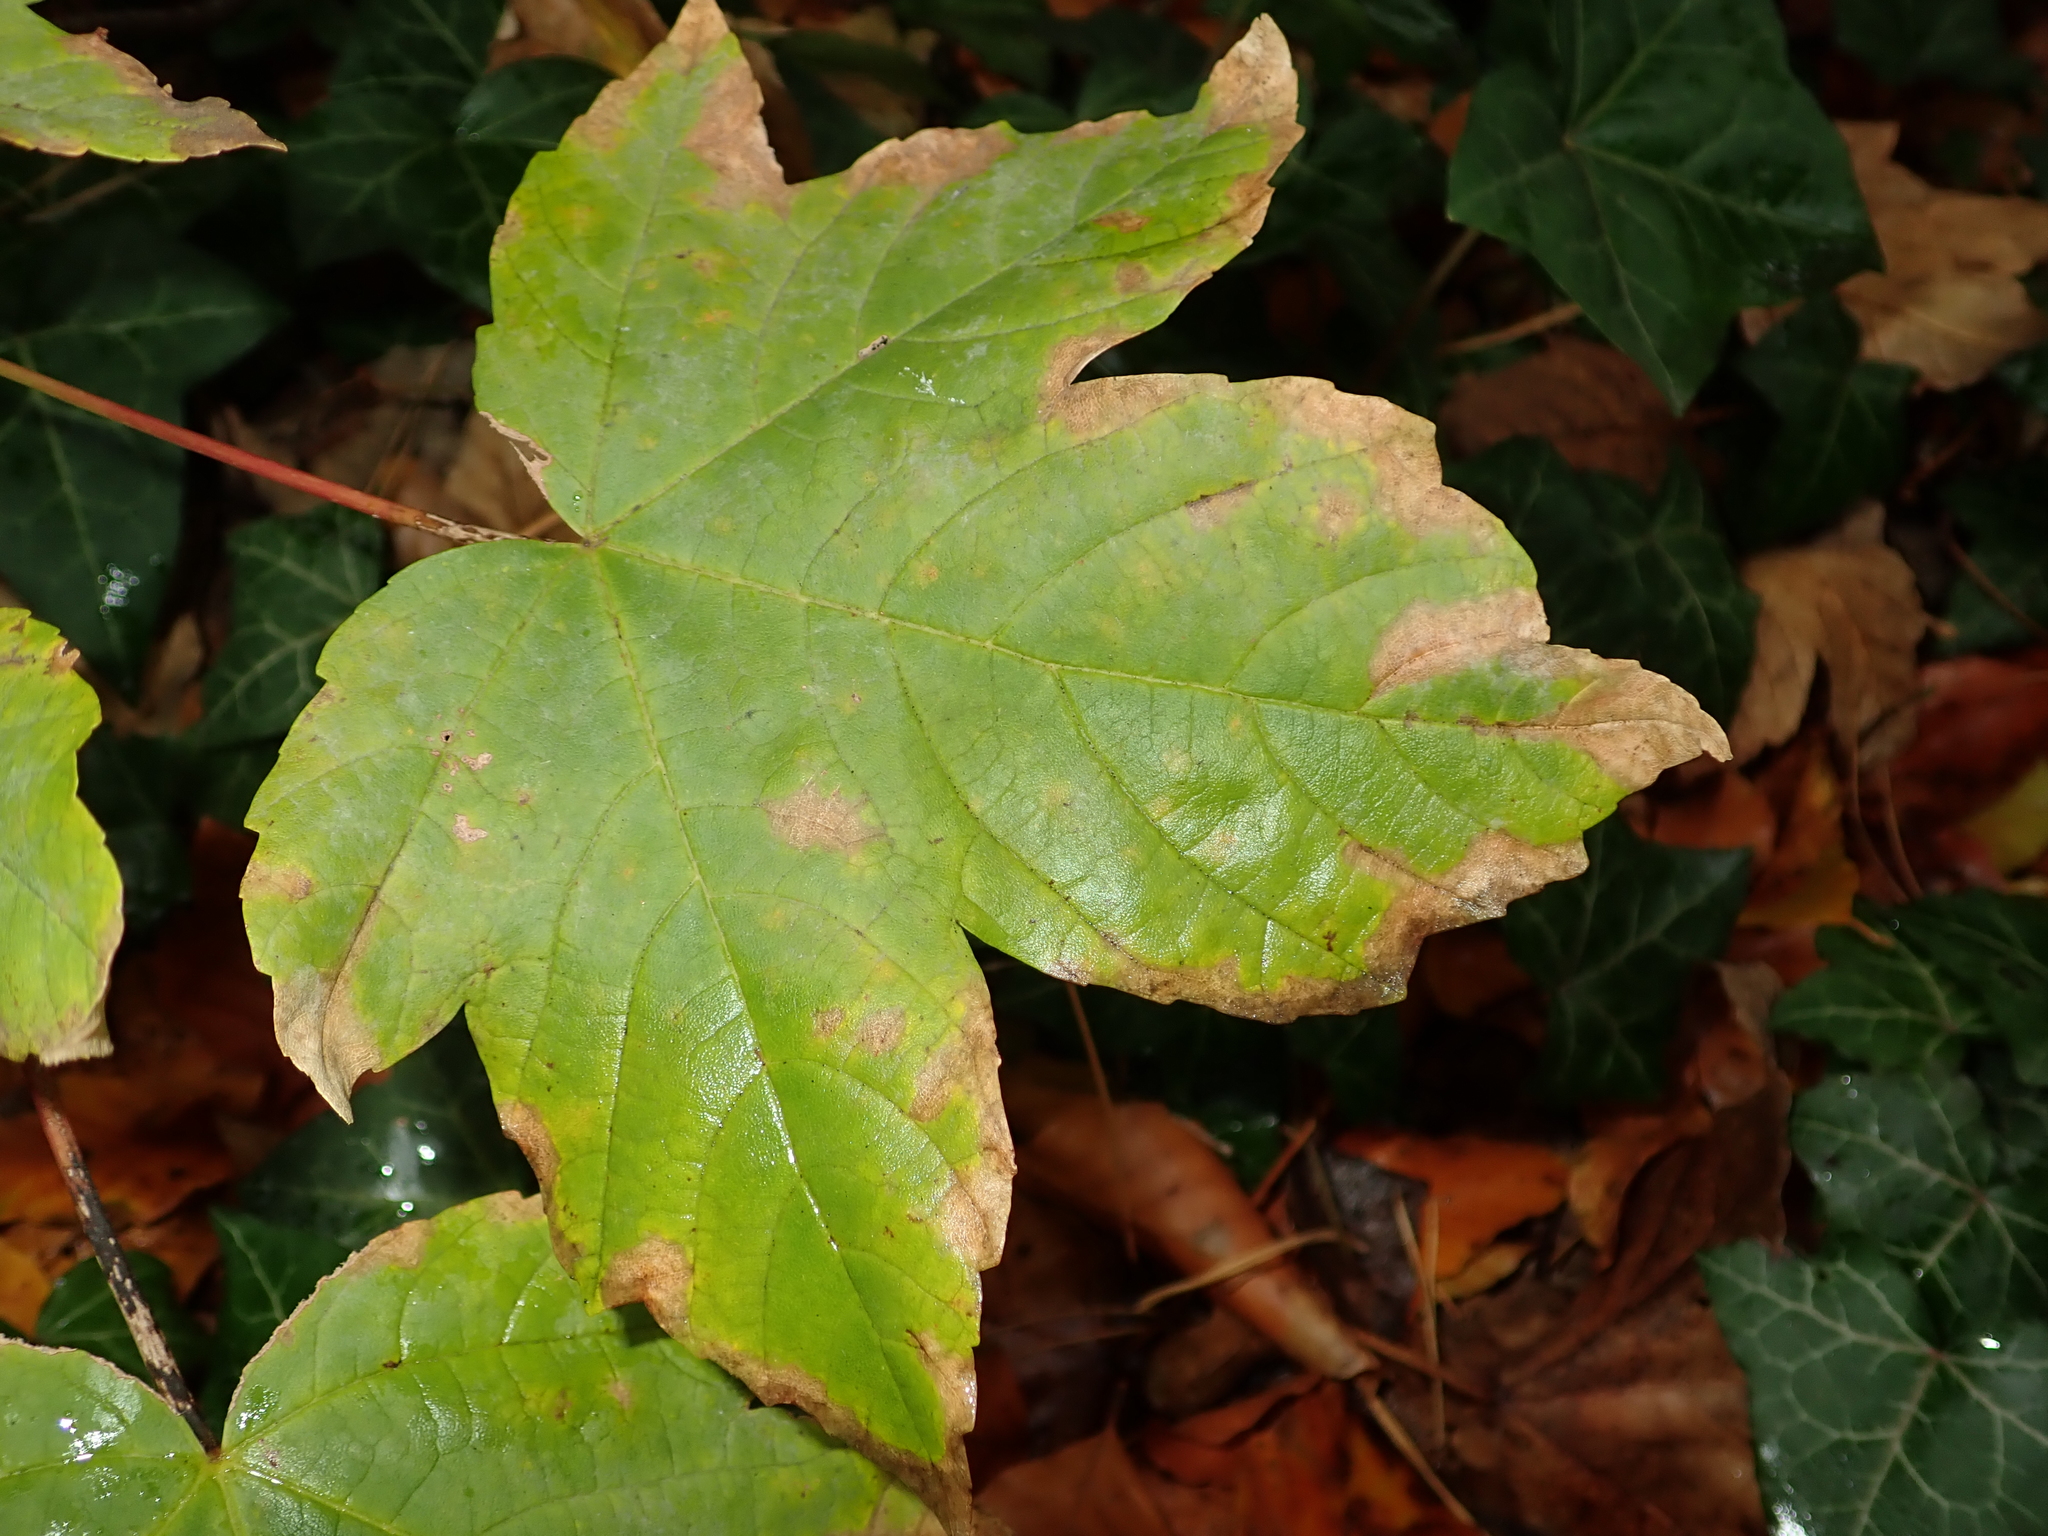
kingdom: Plantae
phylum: Tracheophyta
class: Magnoliopsida
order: Sapindales
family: Sapindaceae
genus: Acer
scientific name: Acer pseudoplatanus
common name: Sycamore
